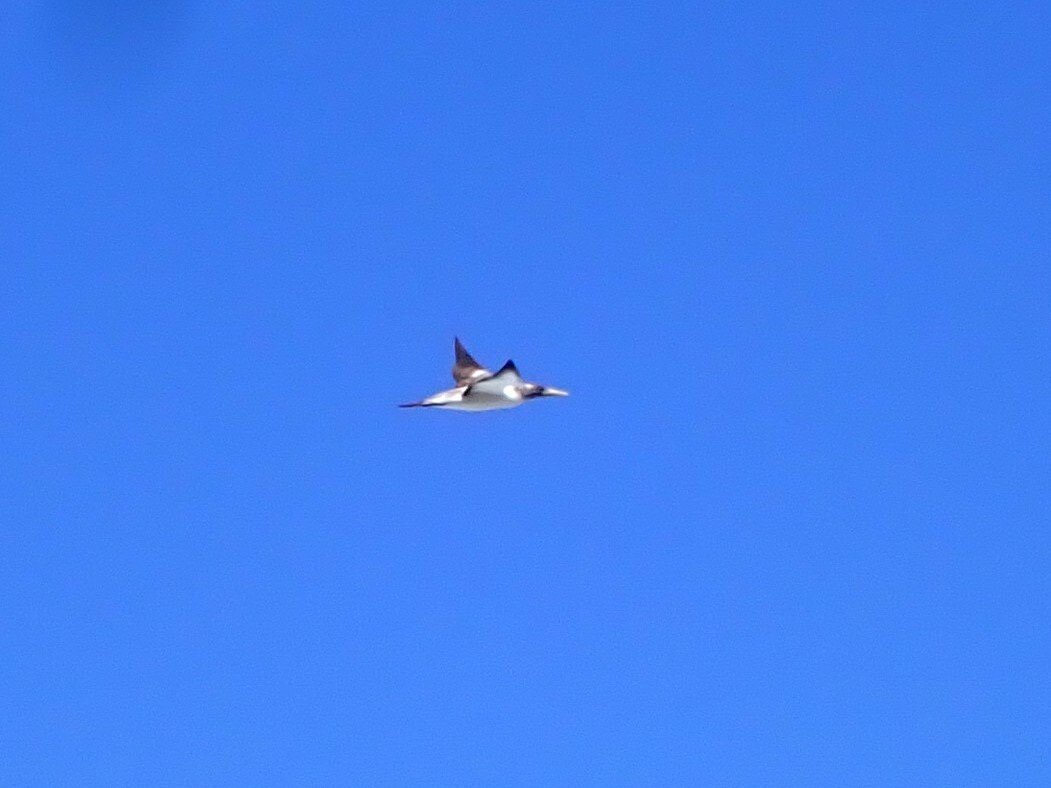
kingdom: Animalia
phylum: Chordata
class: Aves
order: Suliformes
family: Sulidae
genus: Sula
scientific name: Sula dactylatra
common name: Masked booby
